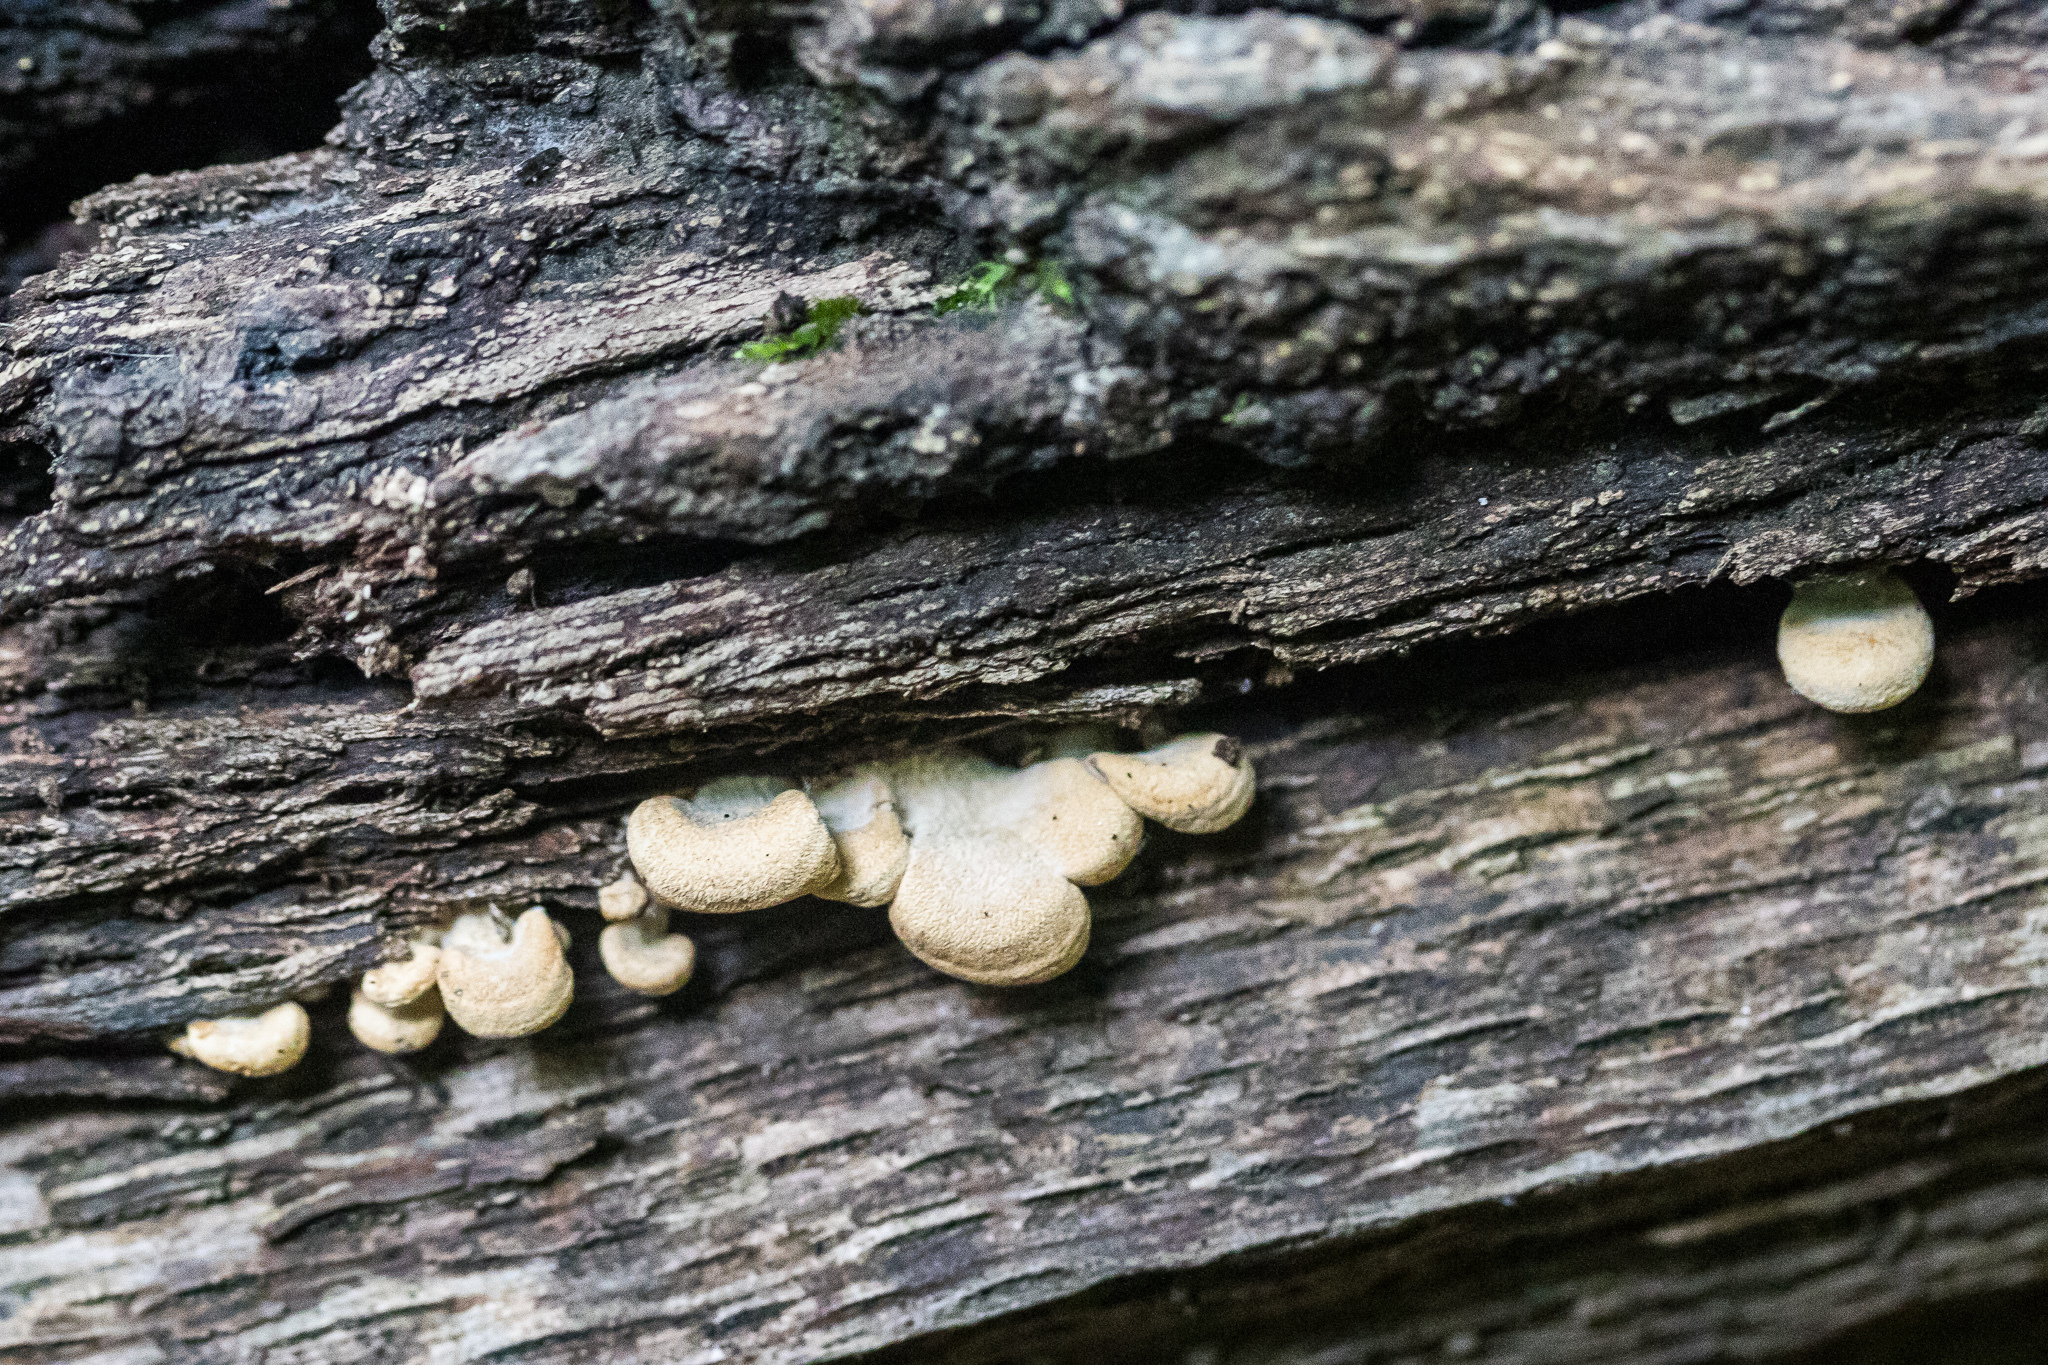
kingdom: Fungi
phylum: Basidiomycota
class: Agaricomycetes
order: Agaricales
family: Mycenaceae
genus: Panellus
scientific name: Panellus stipticus
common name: Bitter oysterling
